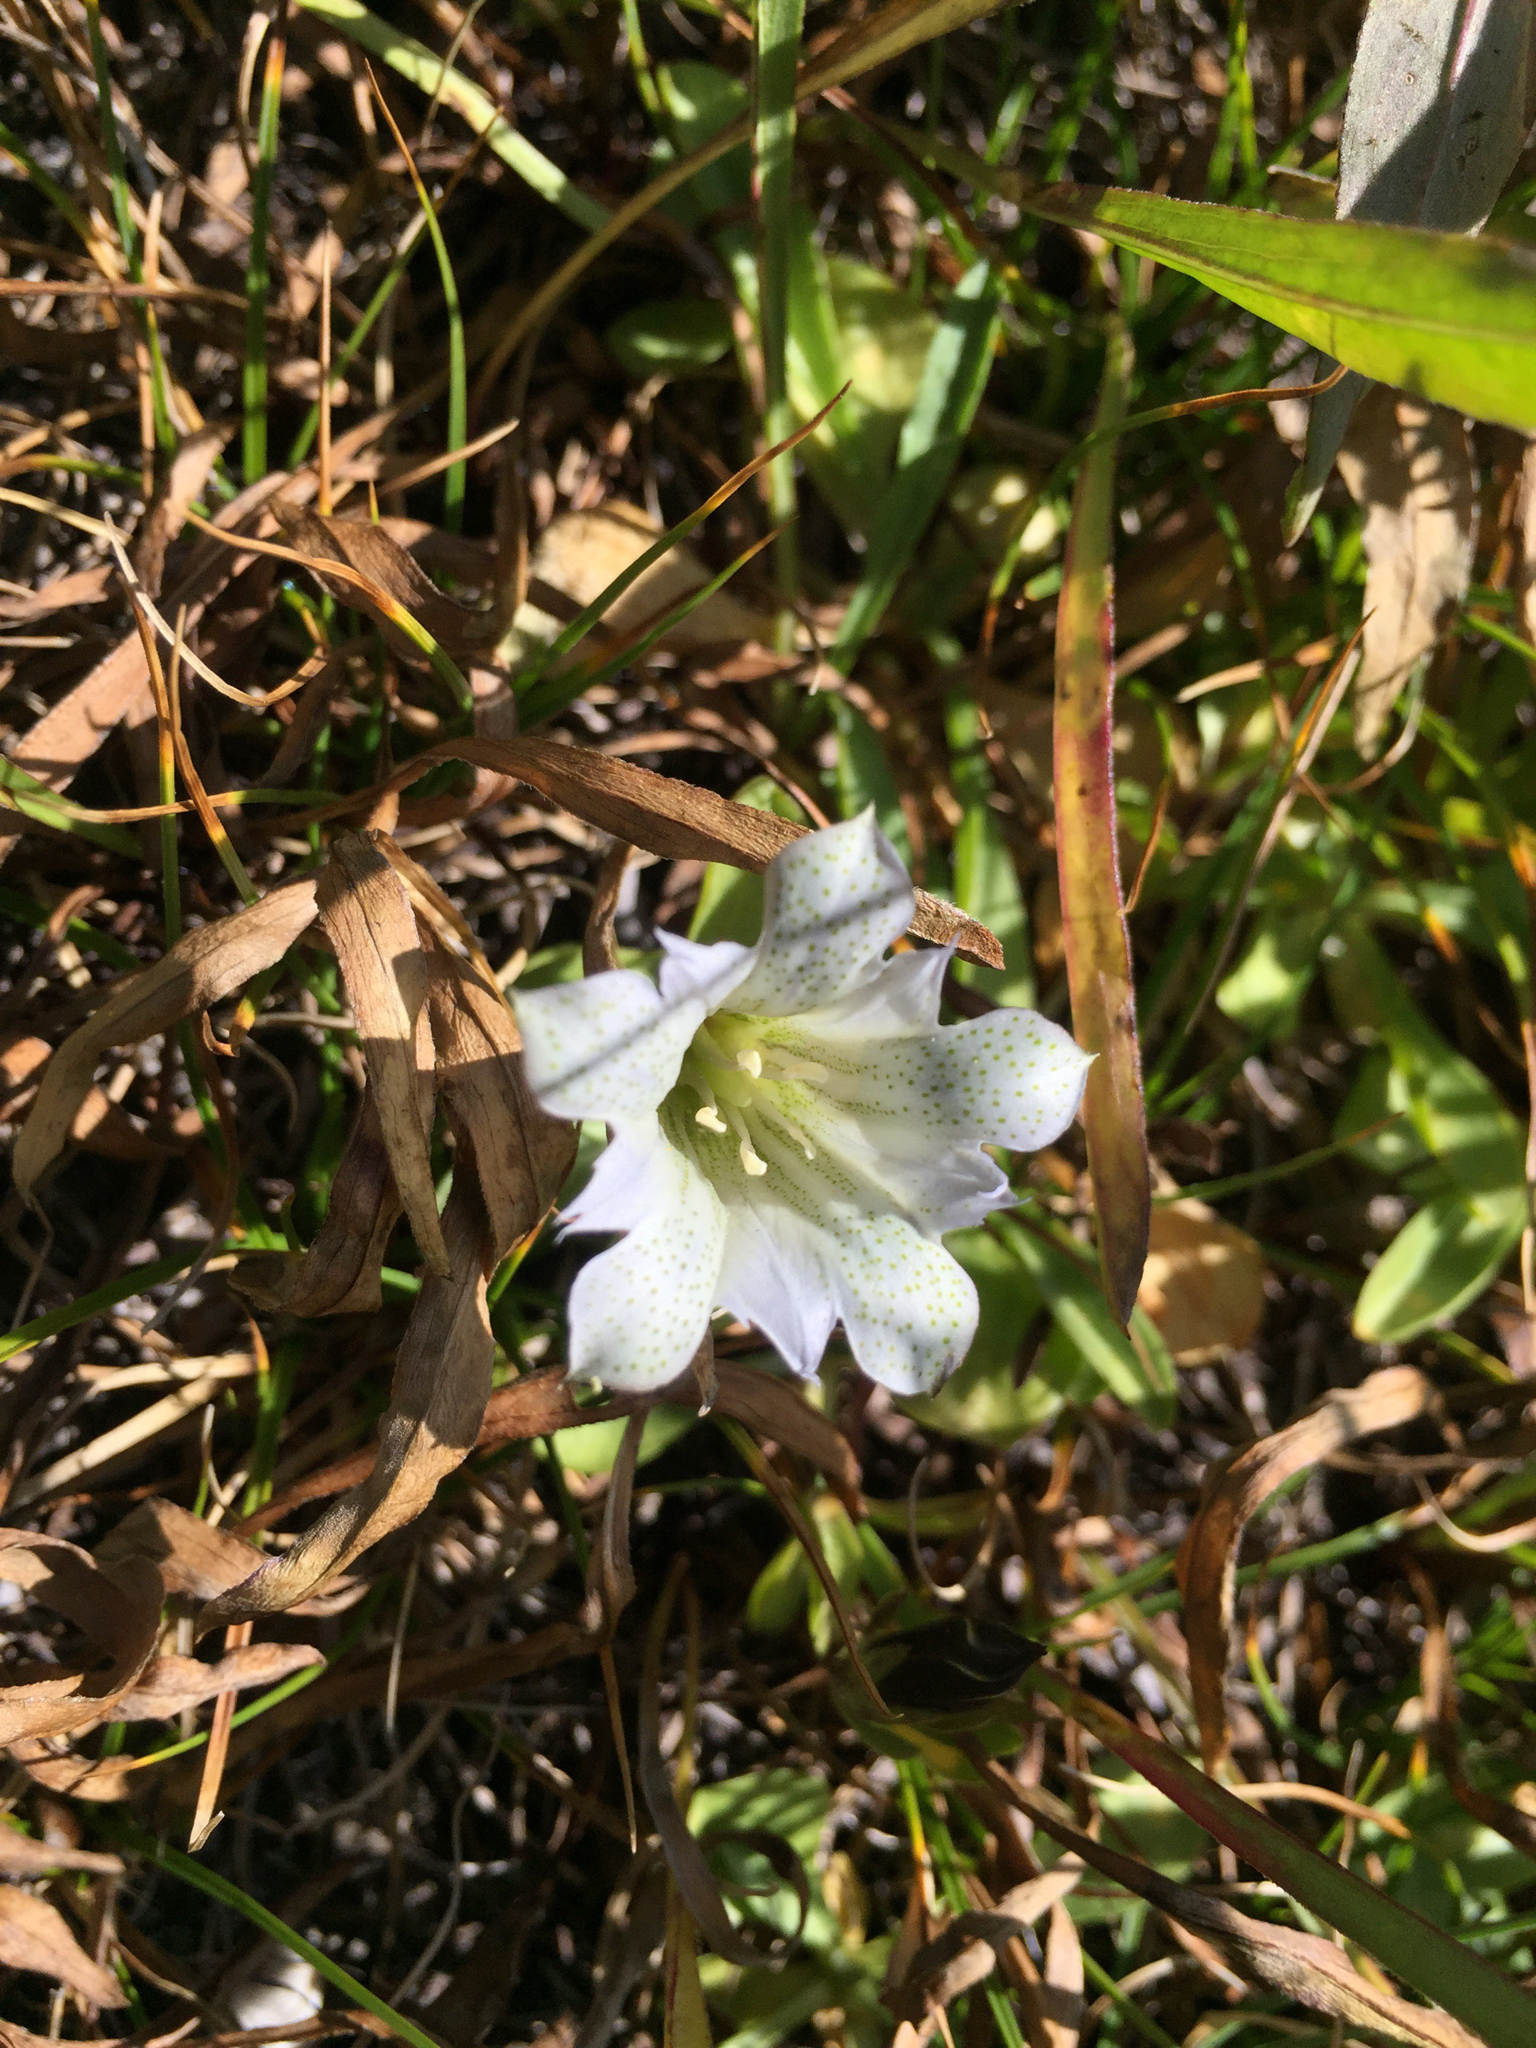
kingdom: Plantae
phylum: Tracheophyta
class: Magnoliopsida
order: Gentianales
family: Gentianaceae
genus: Gentiana
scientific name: Gentiana newberryi
